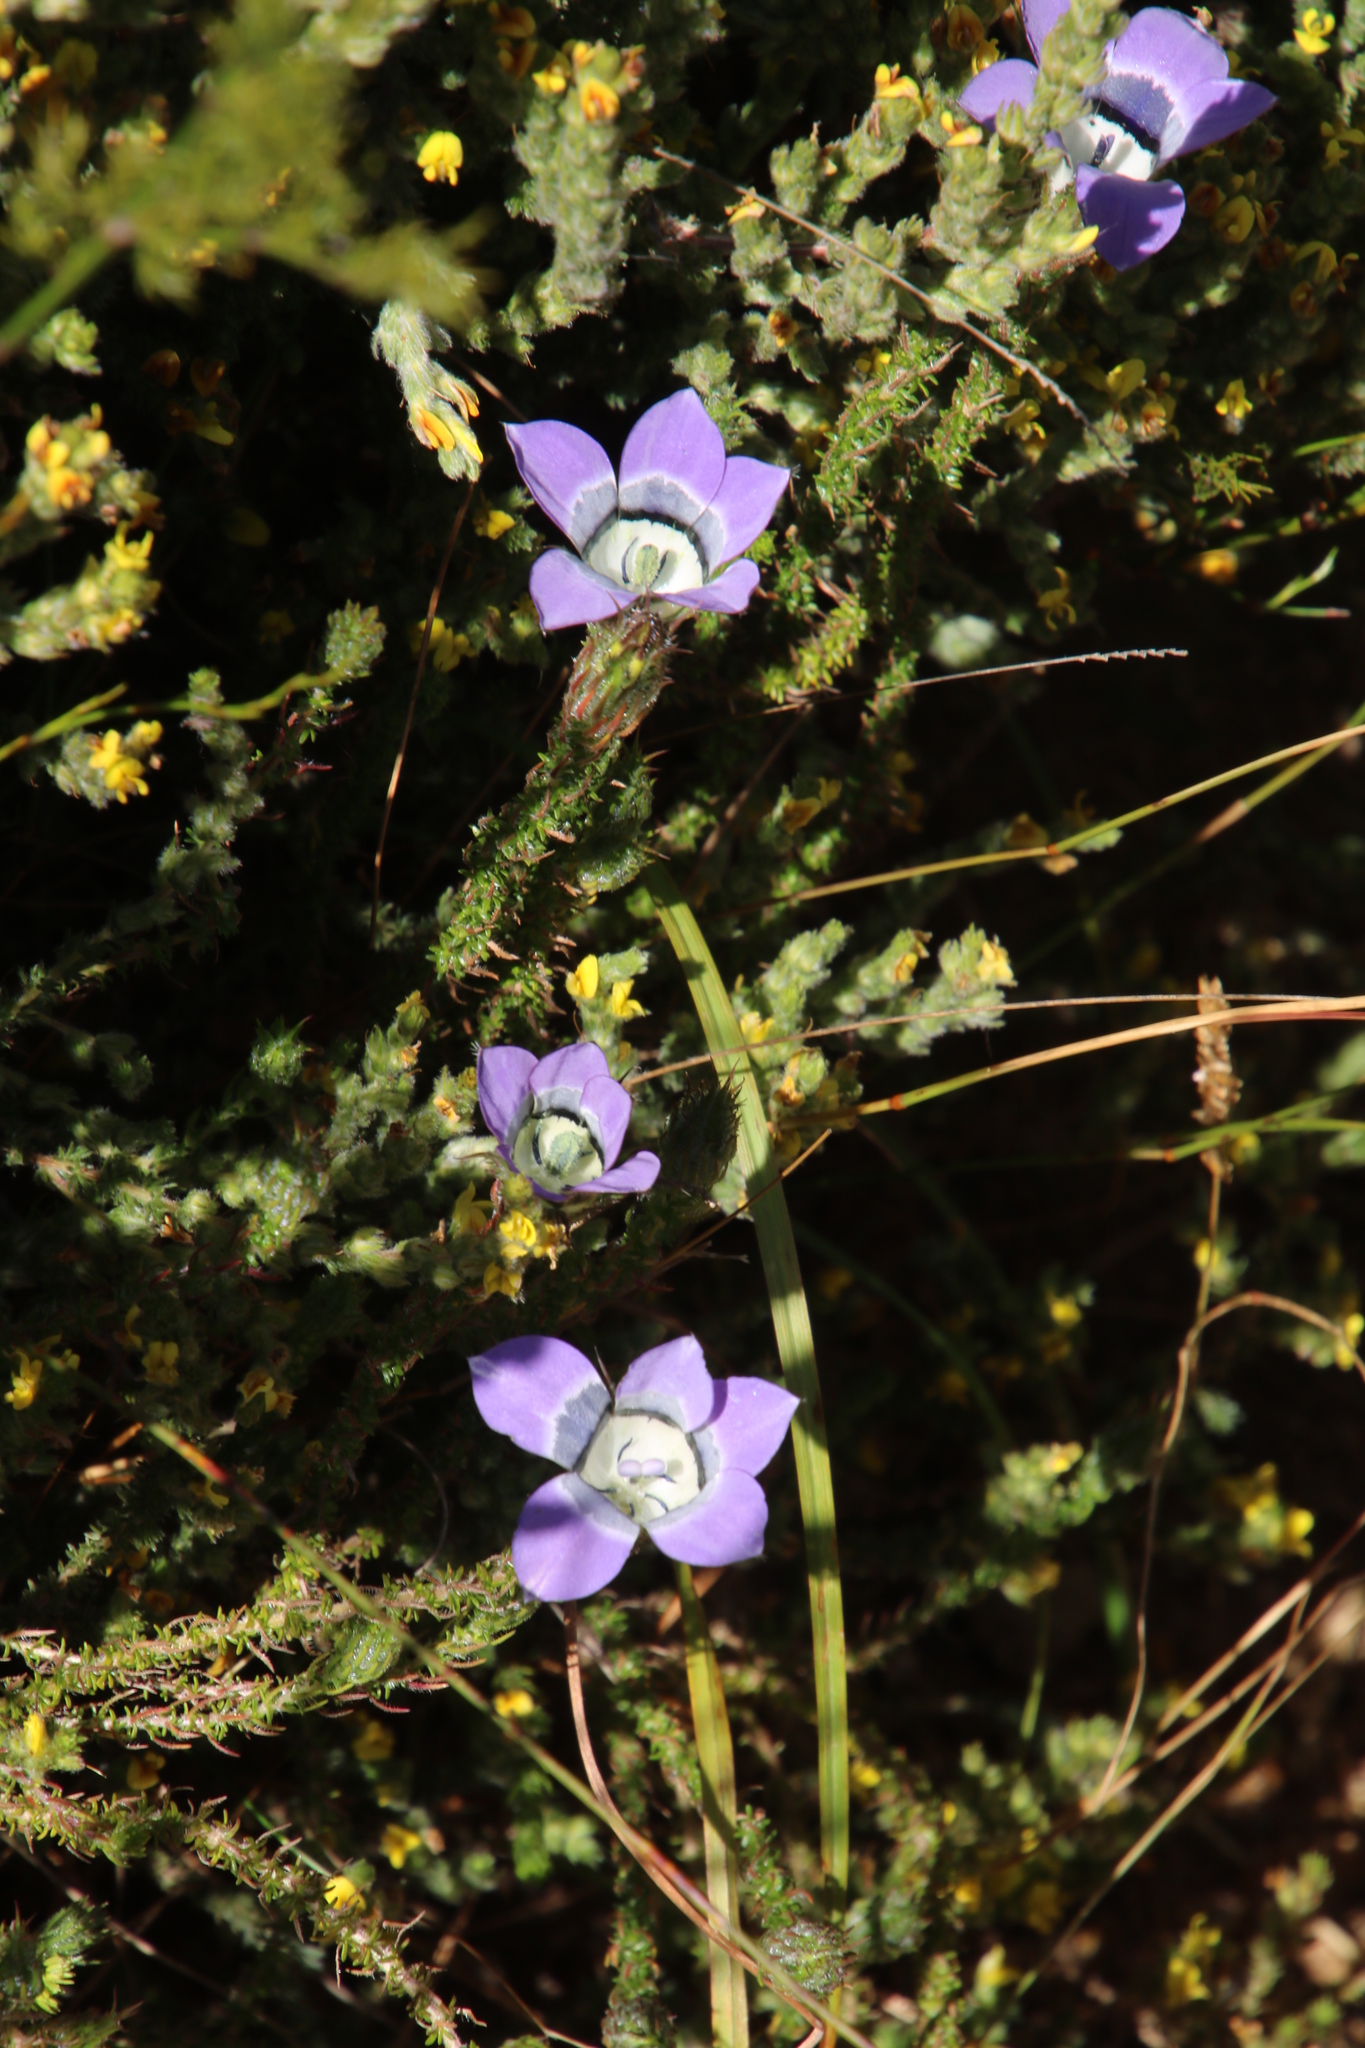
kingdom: Plantae
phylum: Tracheophyta
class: Magnoliopsida
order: Asterales
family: Campanulaceae
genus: Roella
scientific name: Roella ciliata
